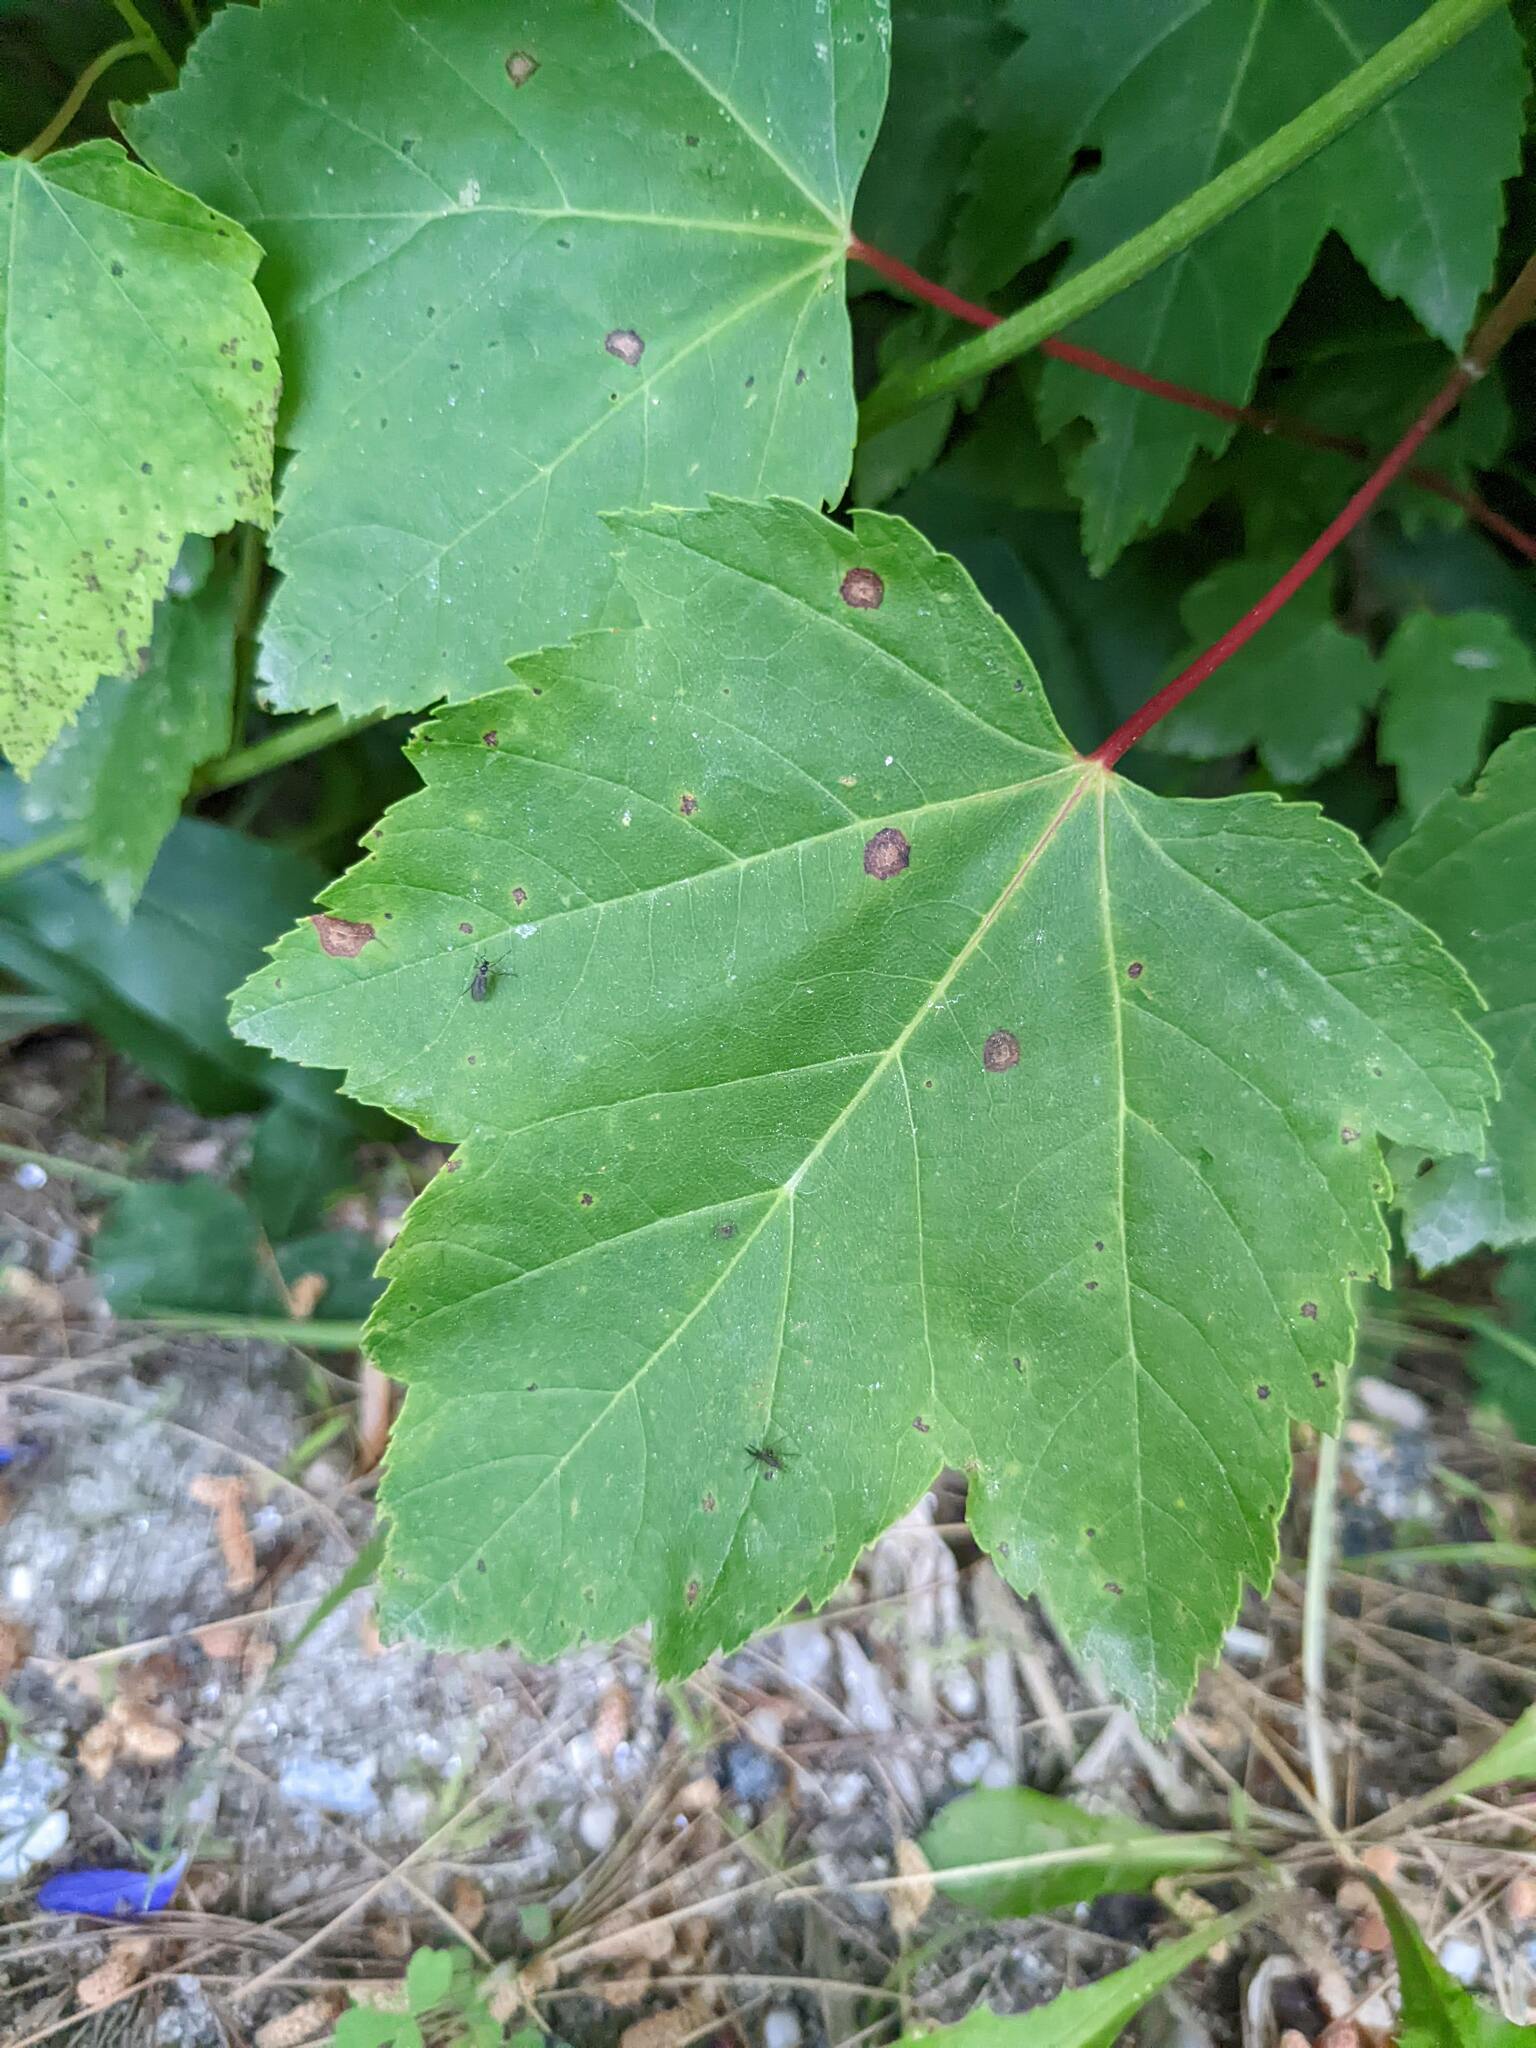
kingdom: Plantae
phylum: Tracheophyta
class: Magnoliopsida
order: Sapindales
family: Sapindaceae
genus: Acer
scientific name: Acer rubrum
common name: Red maple
